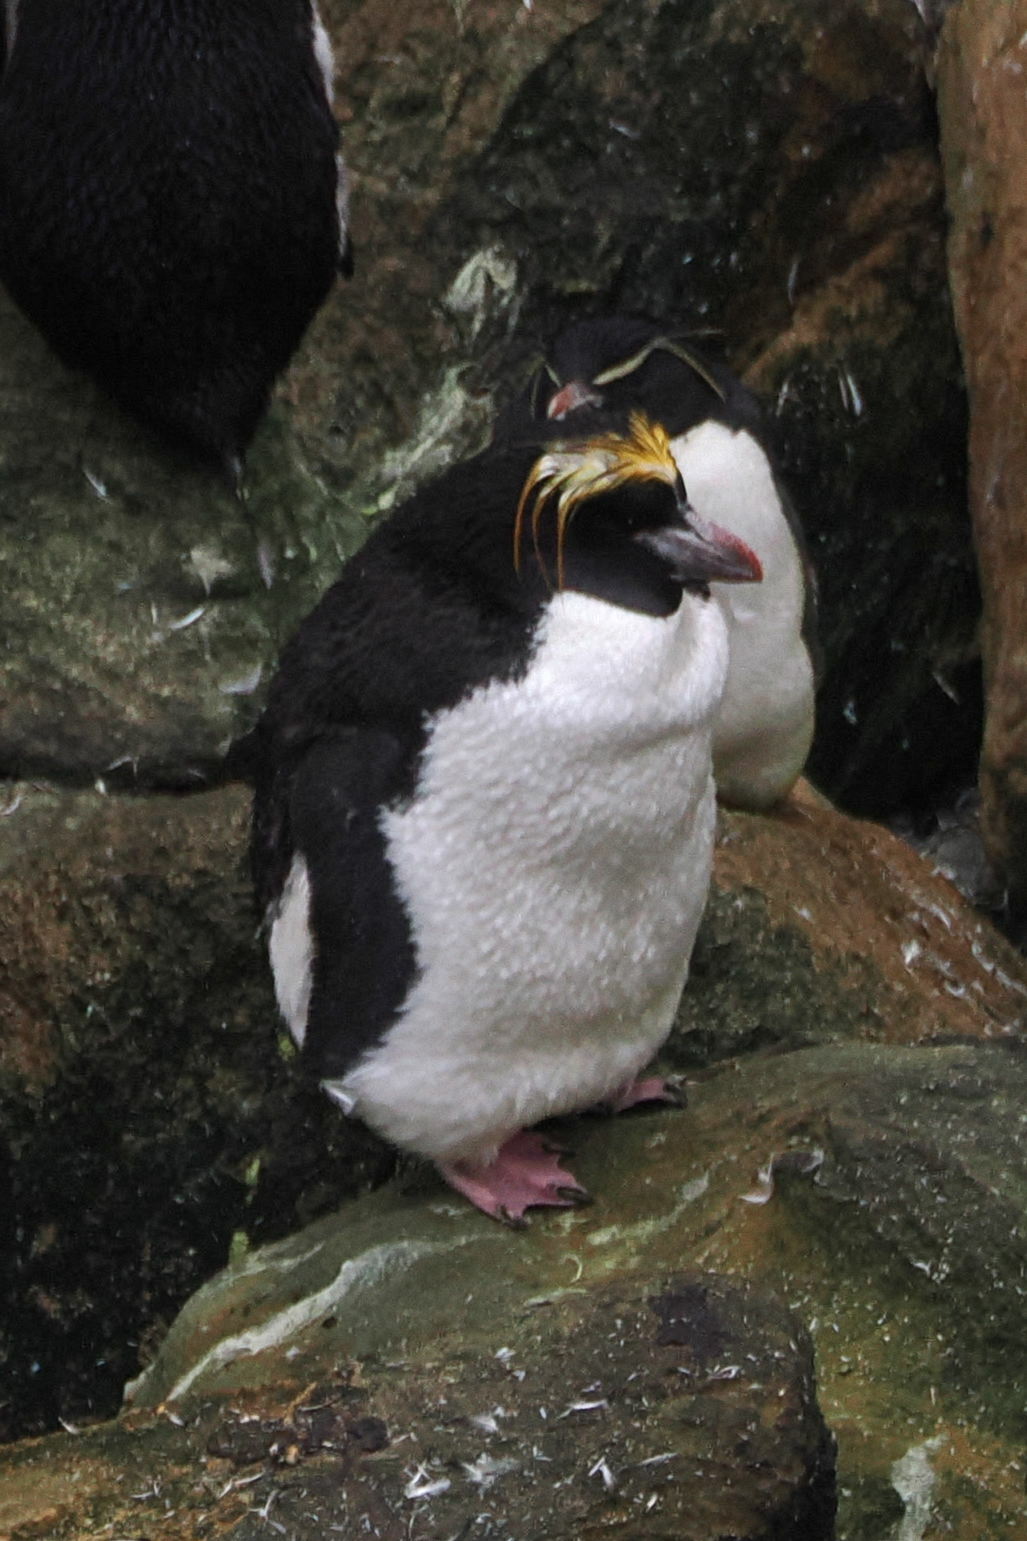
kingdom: Animalia
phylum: Chordata
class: Aves
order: Sphenisciformes
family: Spheniscidae
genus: Eudyptes
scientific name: Eudyptes chrysolophus
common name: Macaroni penguin
